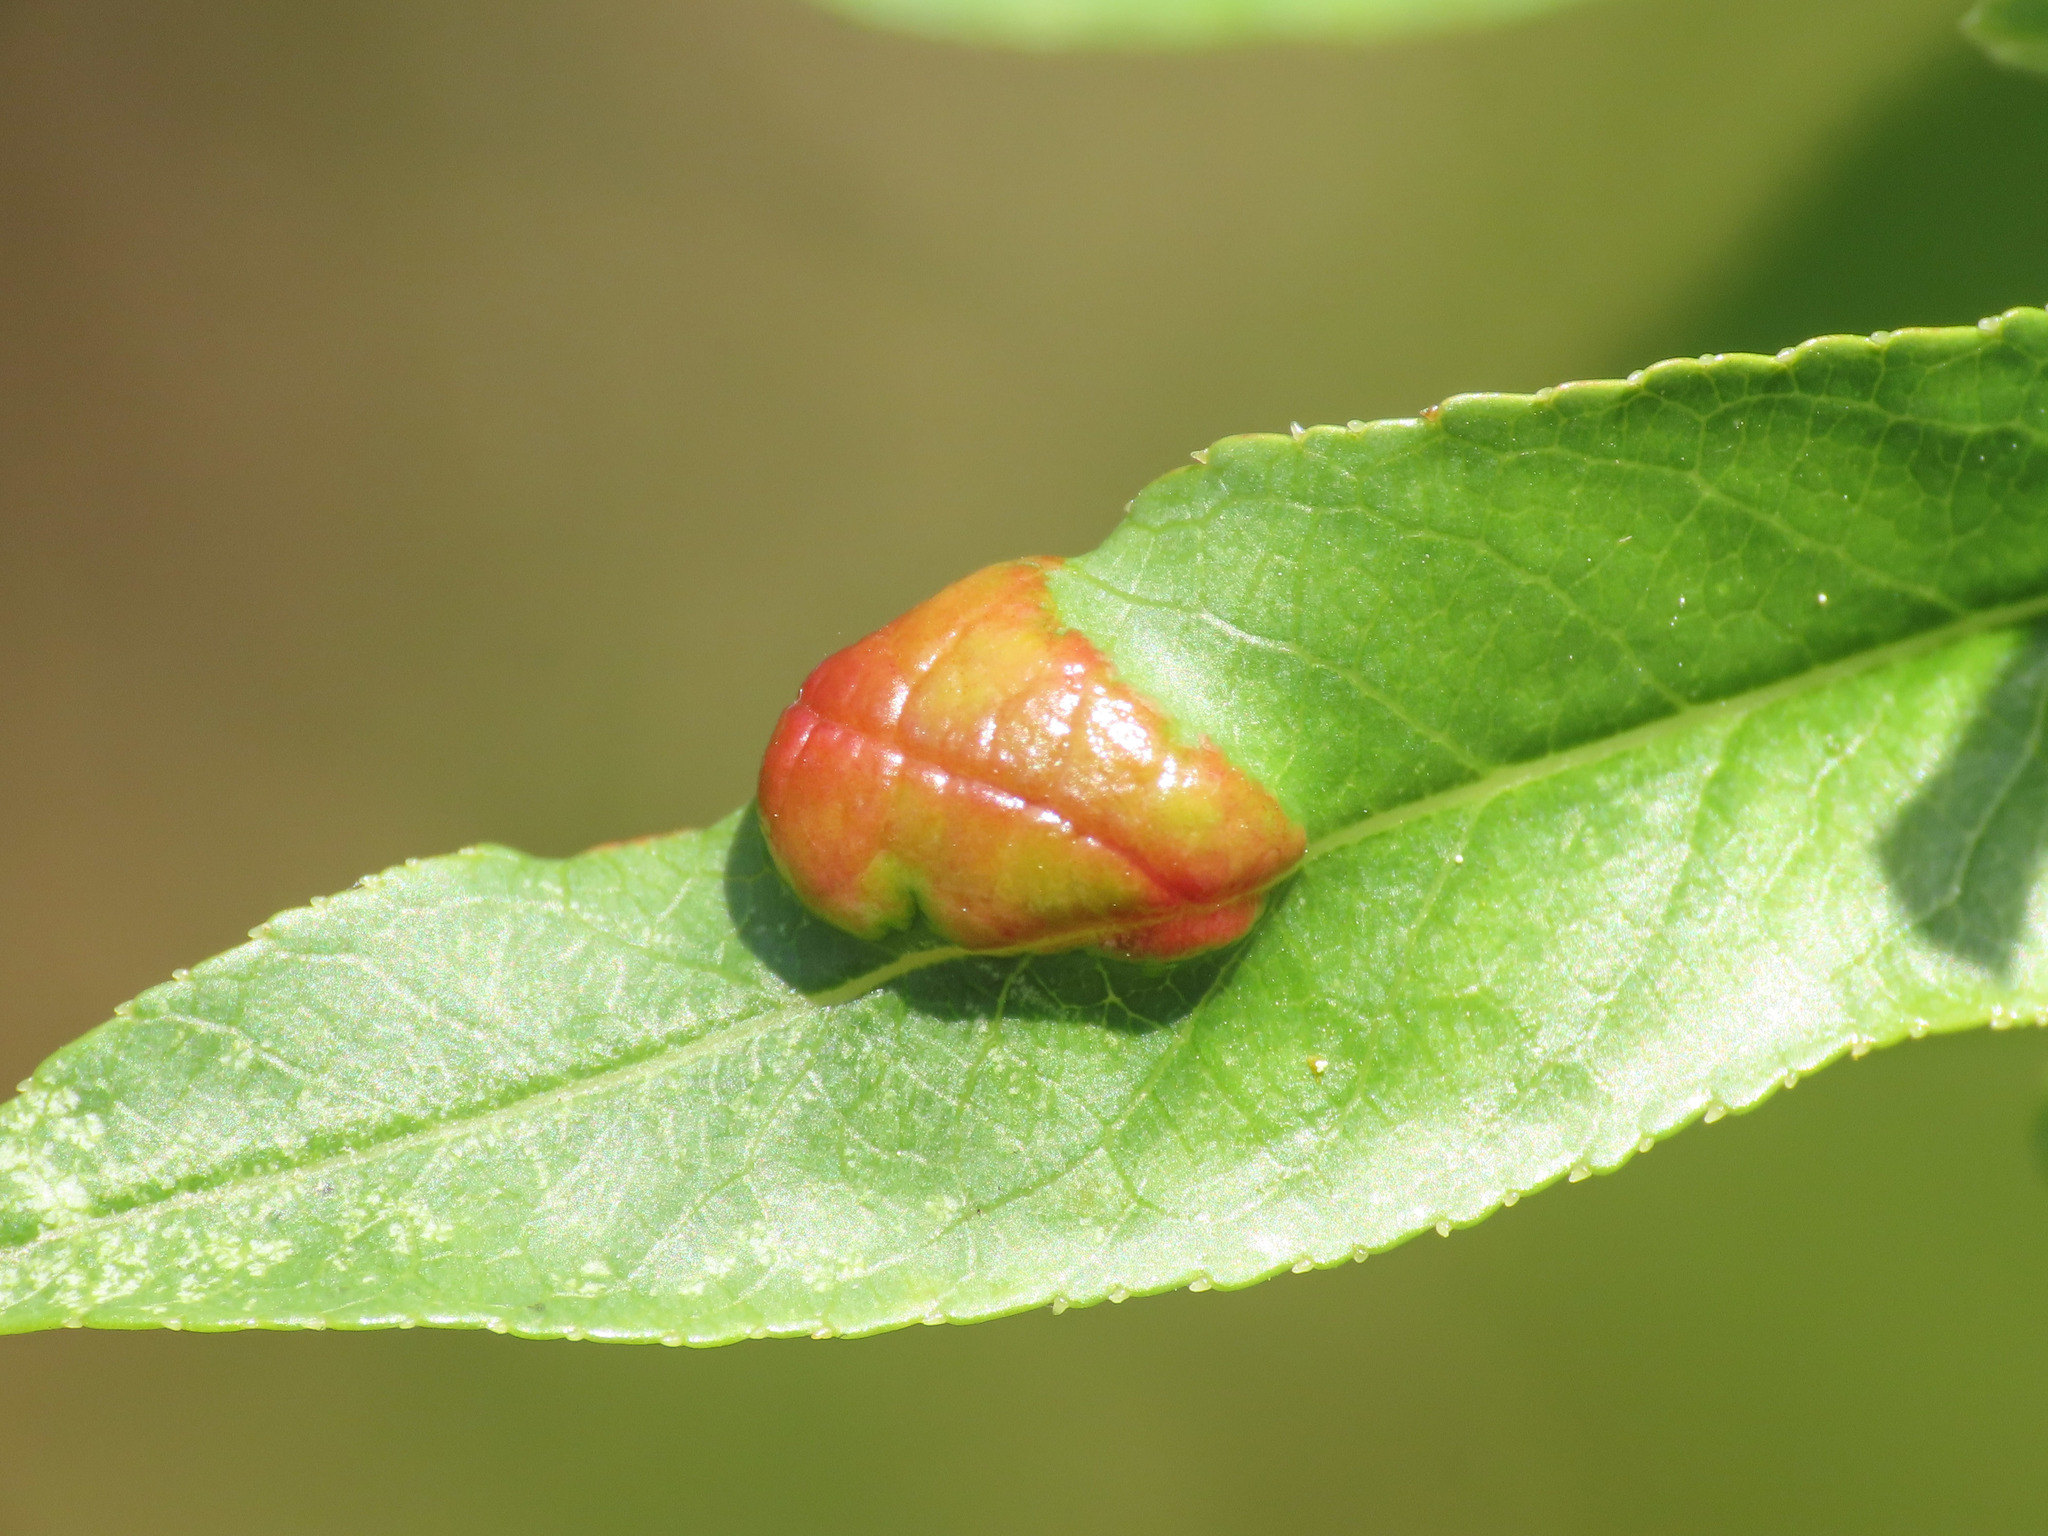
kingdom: Fungi
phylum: Ascomycota
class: Taphrinomycetes
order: Taphrinales
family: Taphrinaceae
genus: Taphrina
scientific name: Taphrina deformans
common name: Peach leaf curl
